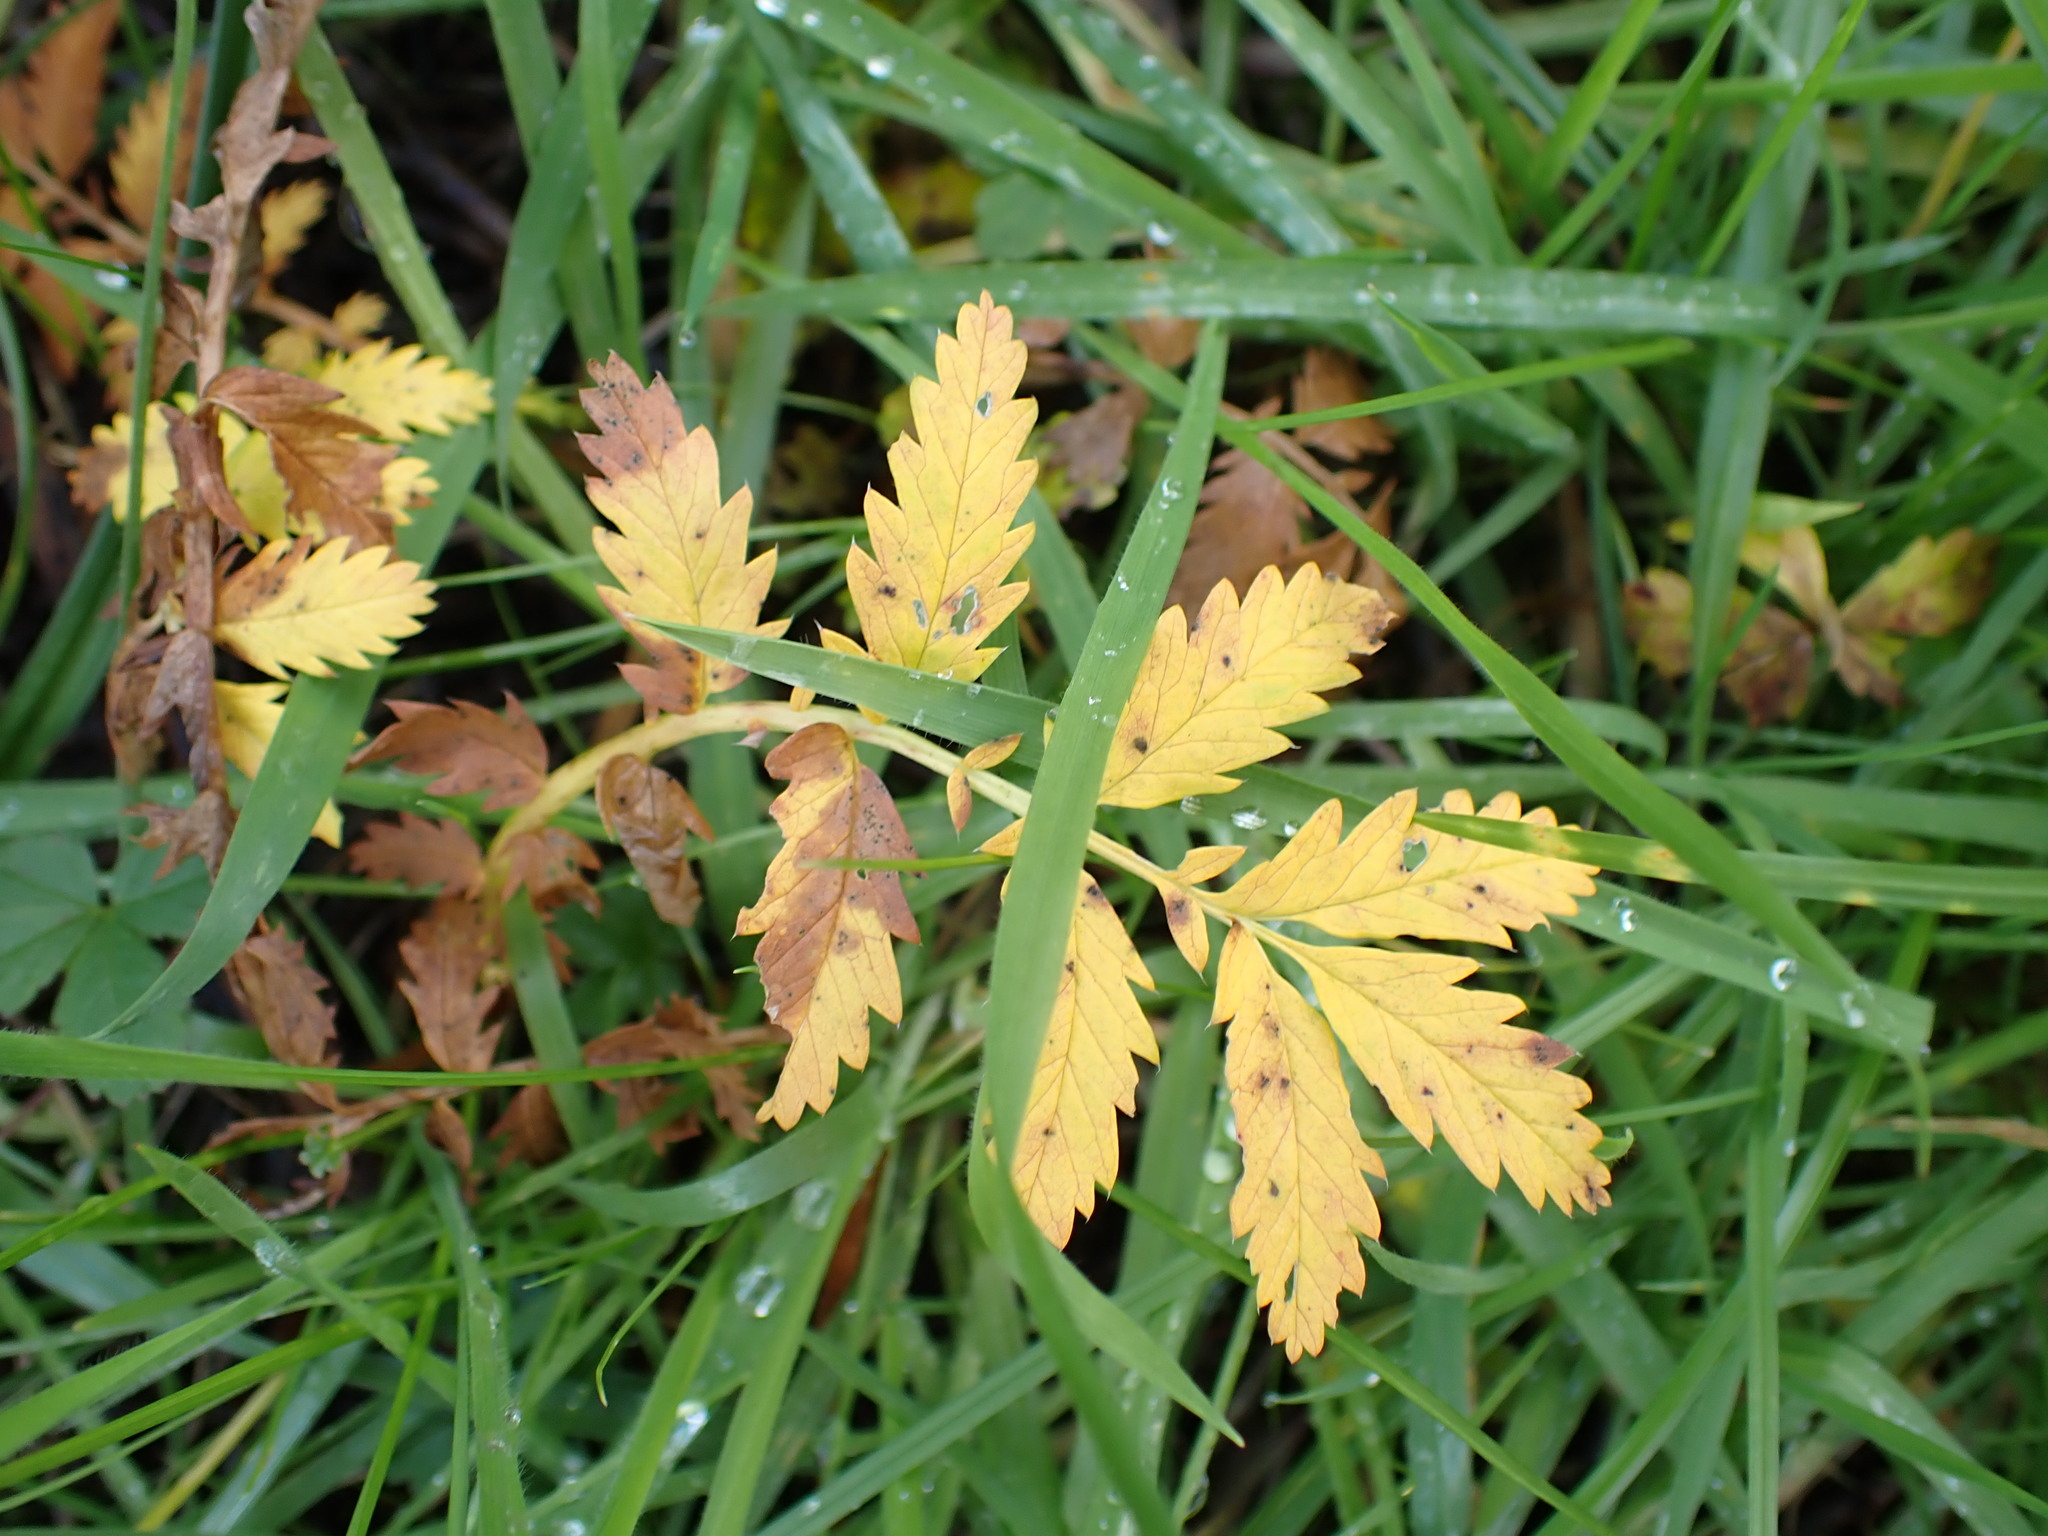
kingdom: Plantae
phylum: Tracheophyta
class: Magnoliopsida
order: Rosales
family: Rosaceae
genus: Argentina
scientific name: Argentina anserina
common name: Common silverweed
